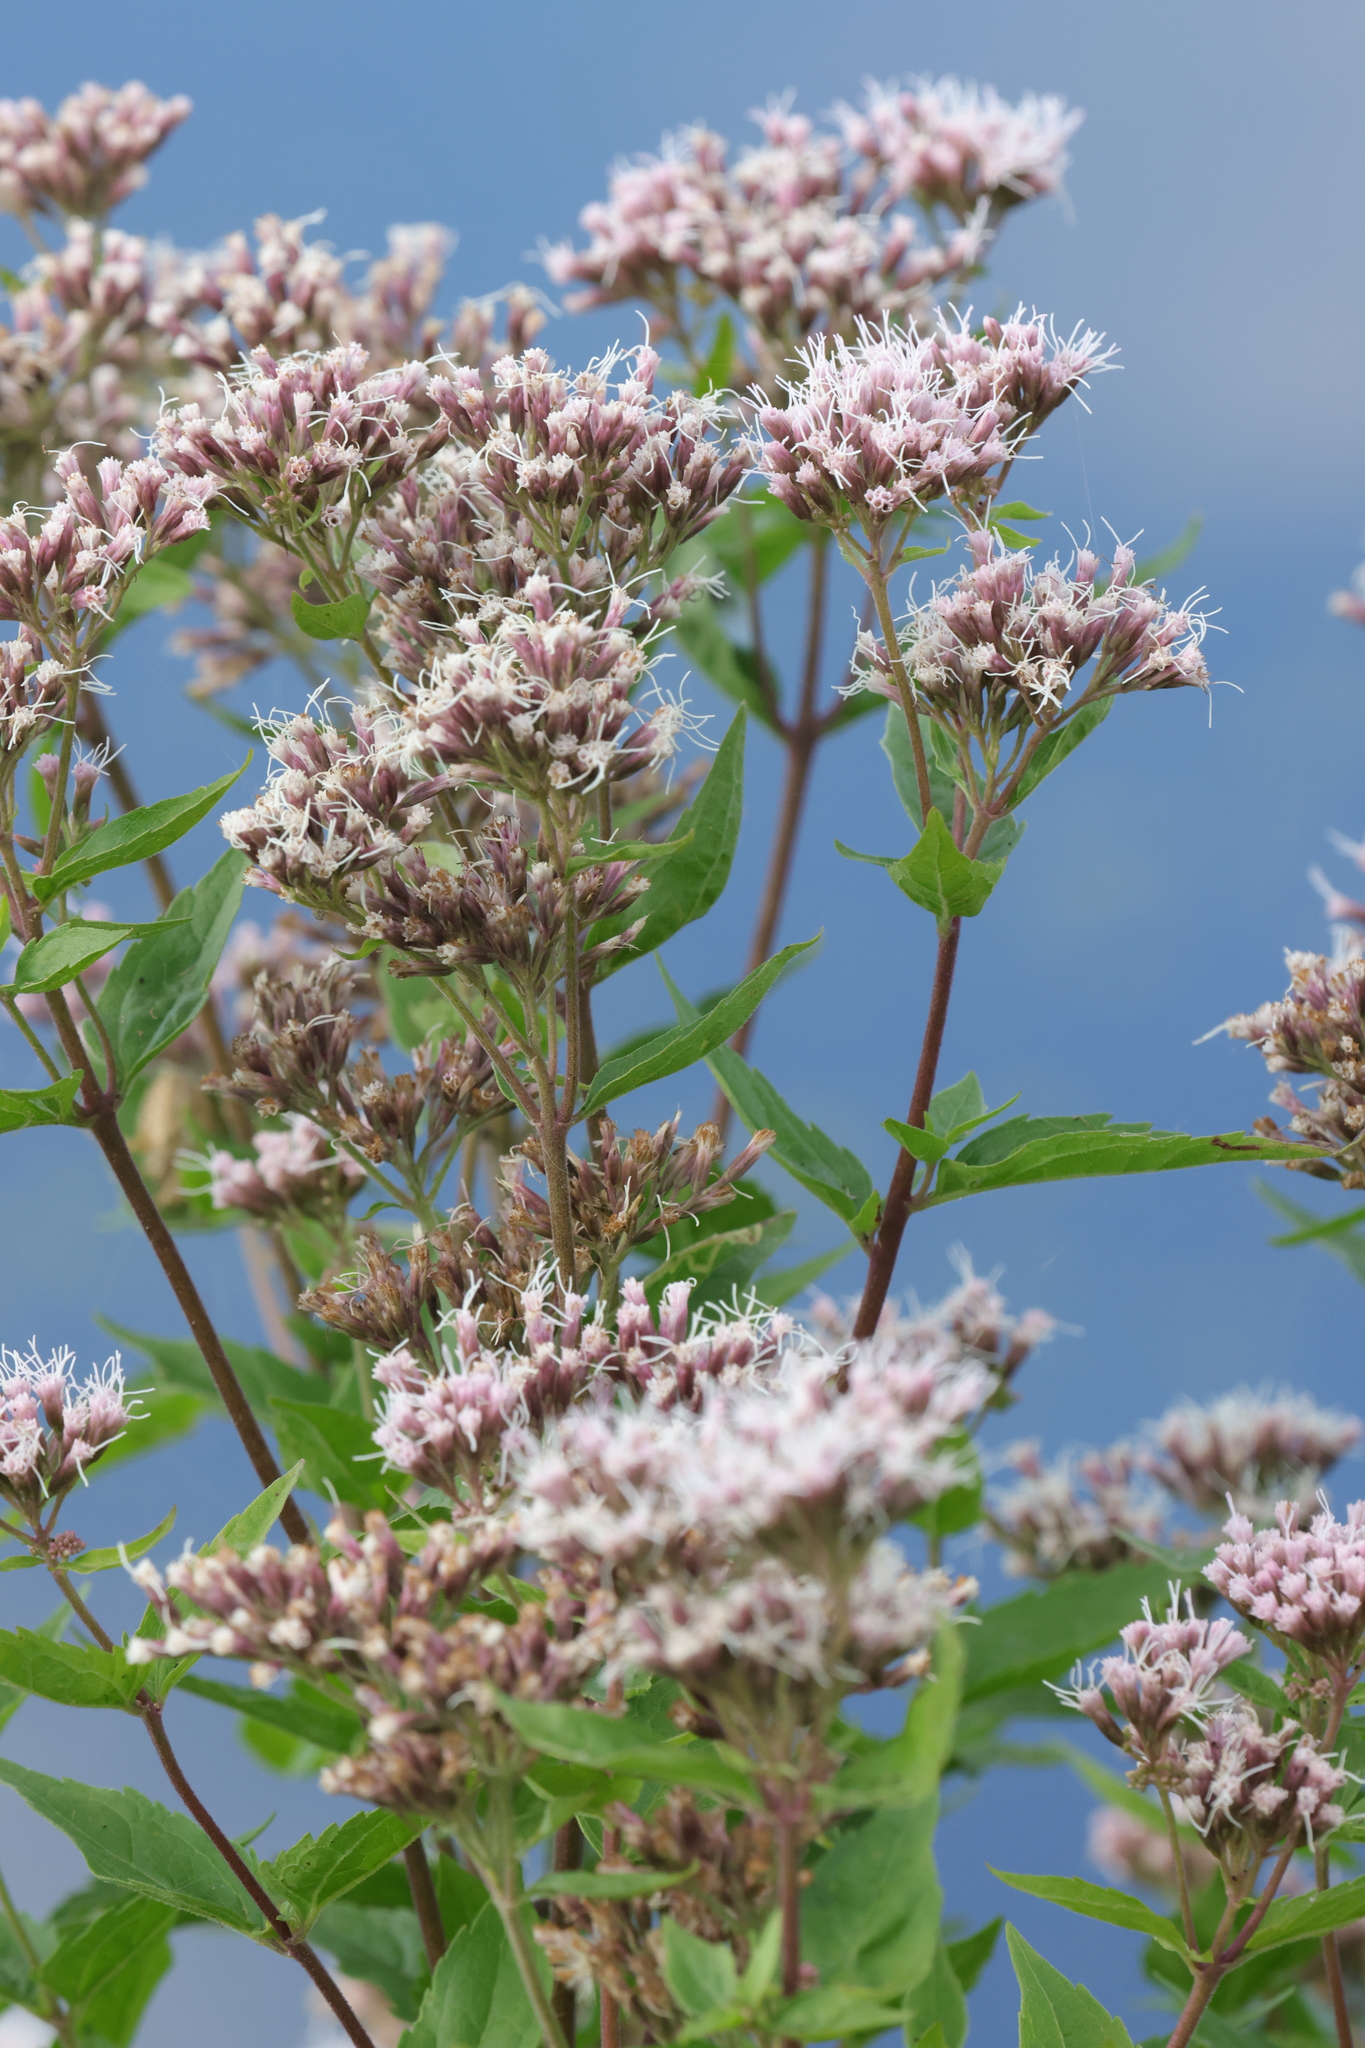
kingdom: Plantae
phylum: Tracheophyta
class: Magnoliopsida
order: Asterales
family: Asteraceae
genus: Eupatorium
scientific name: Eupatorium cannabinum
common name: Hemp-agrimony
